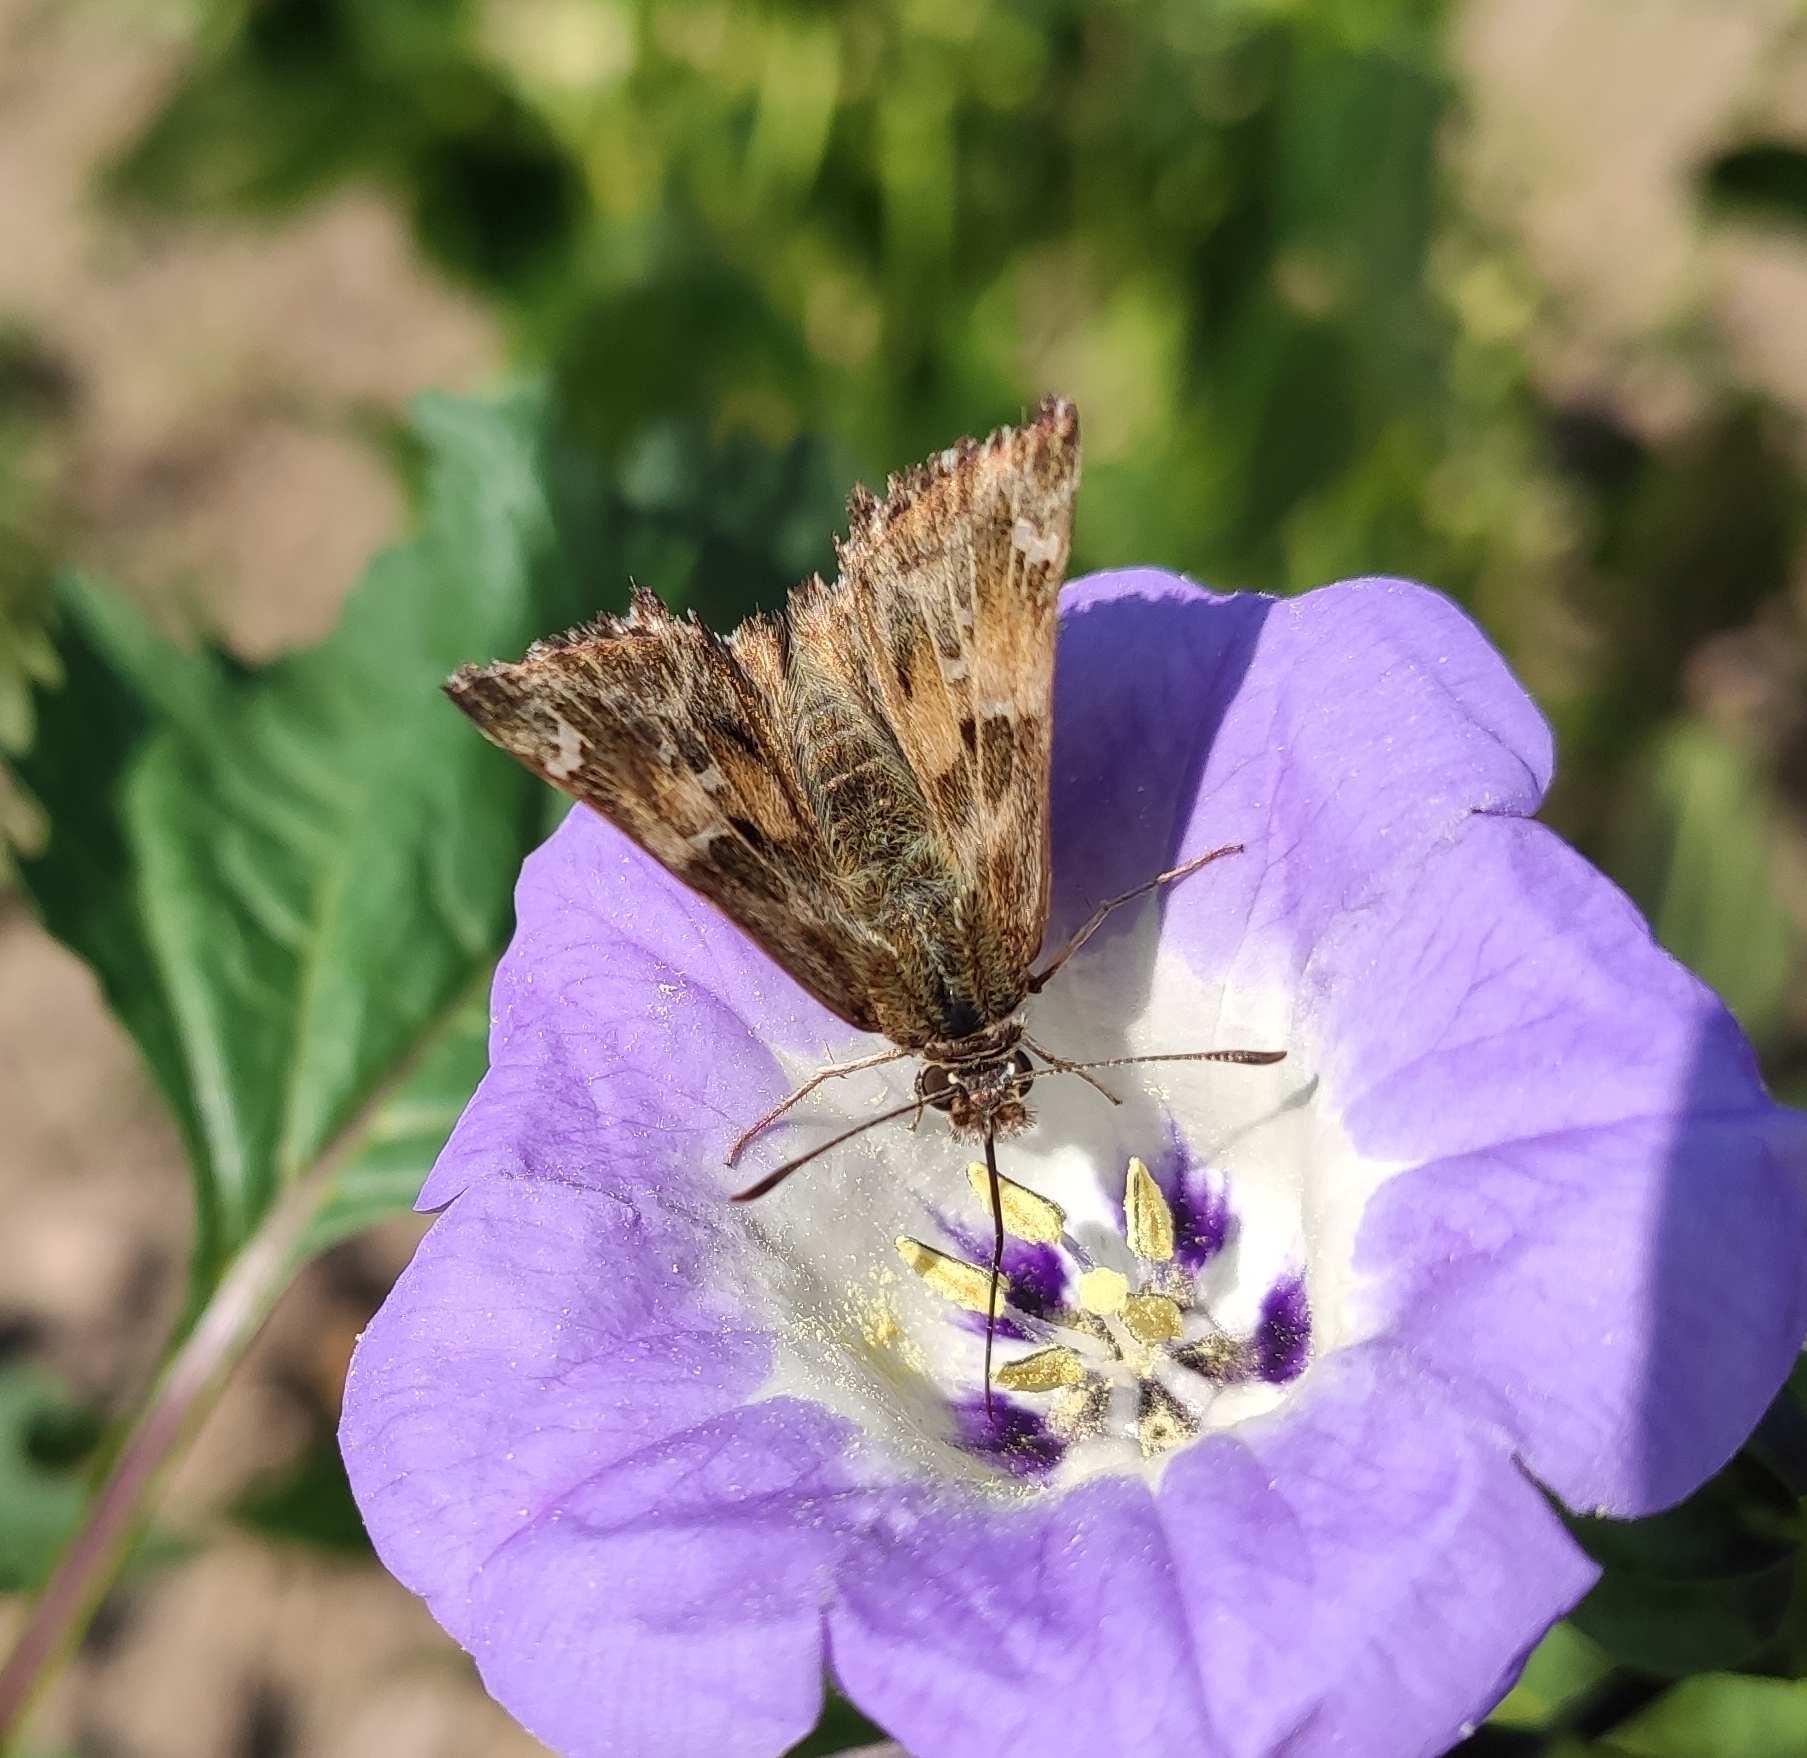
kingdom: Animalia
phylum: Arthropoda
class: Insecta
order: Lepidoptera
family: Hesperiidae
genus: Carcharodus
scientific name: Carcharodus alceae
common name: Mallow skipper
